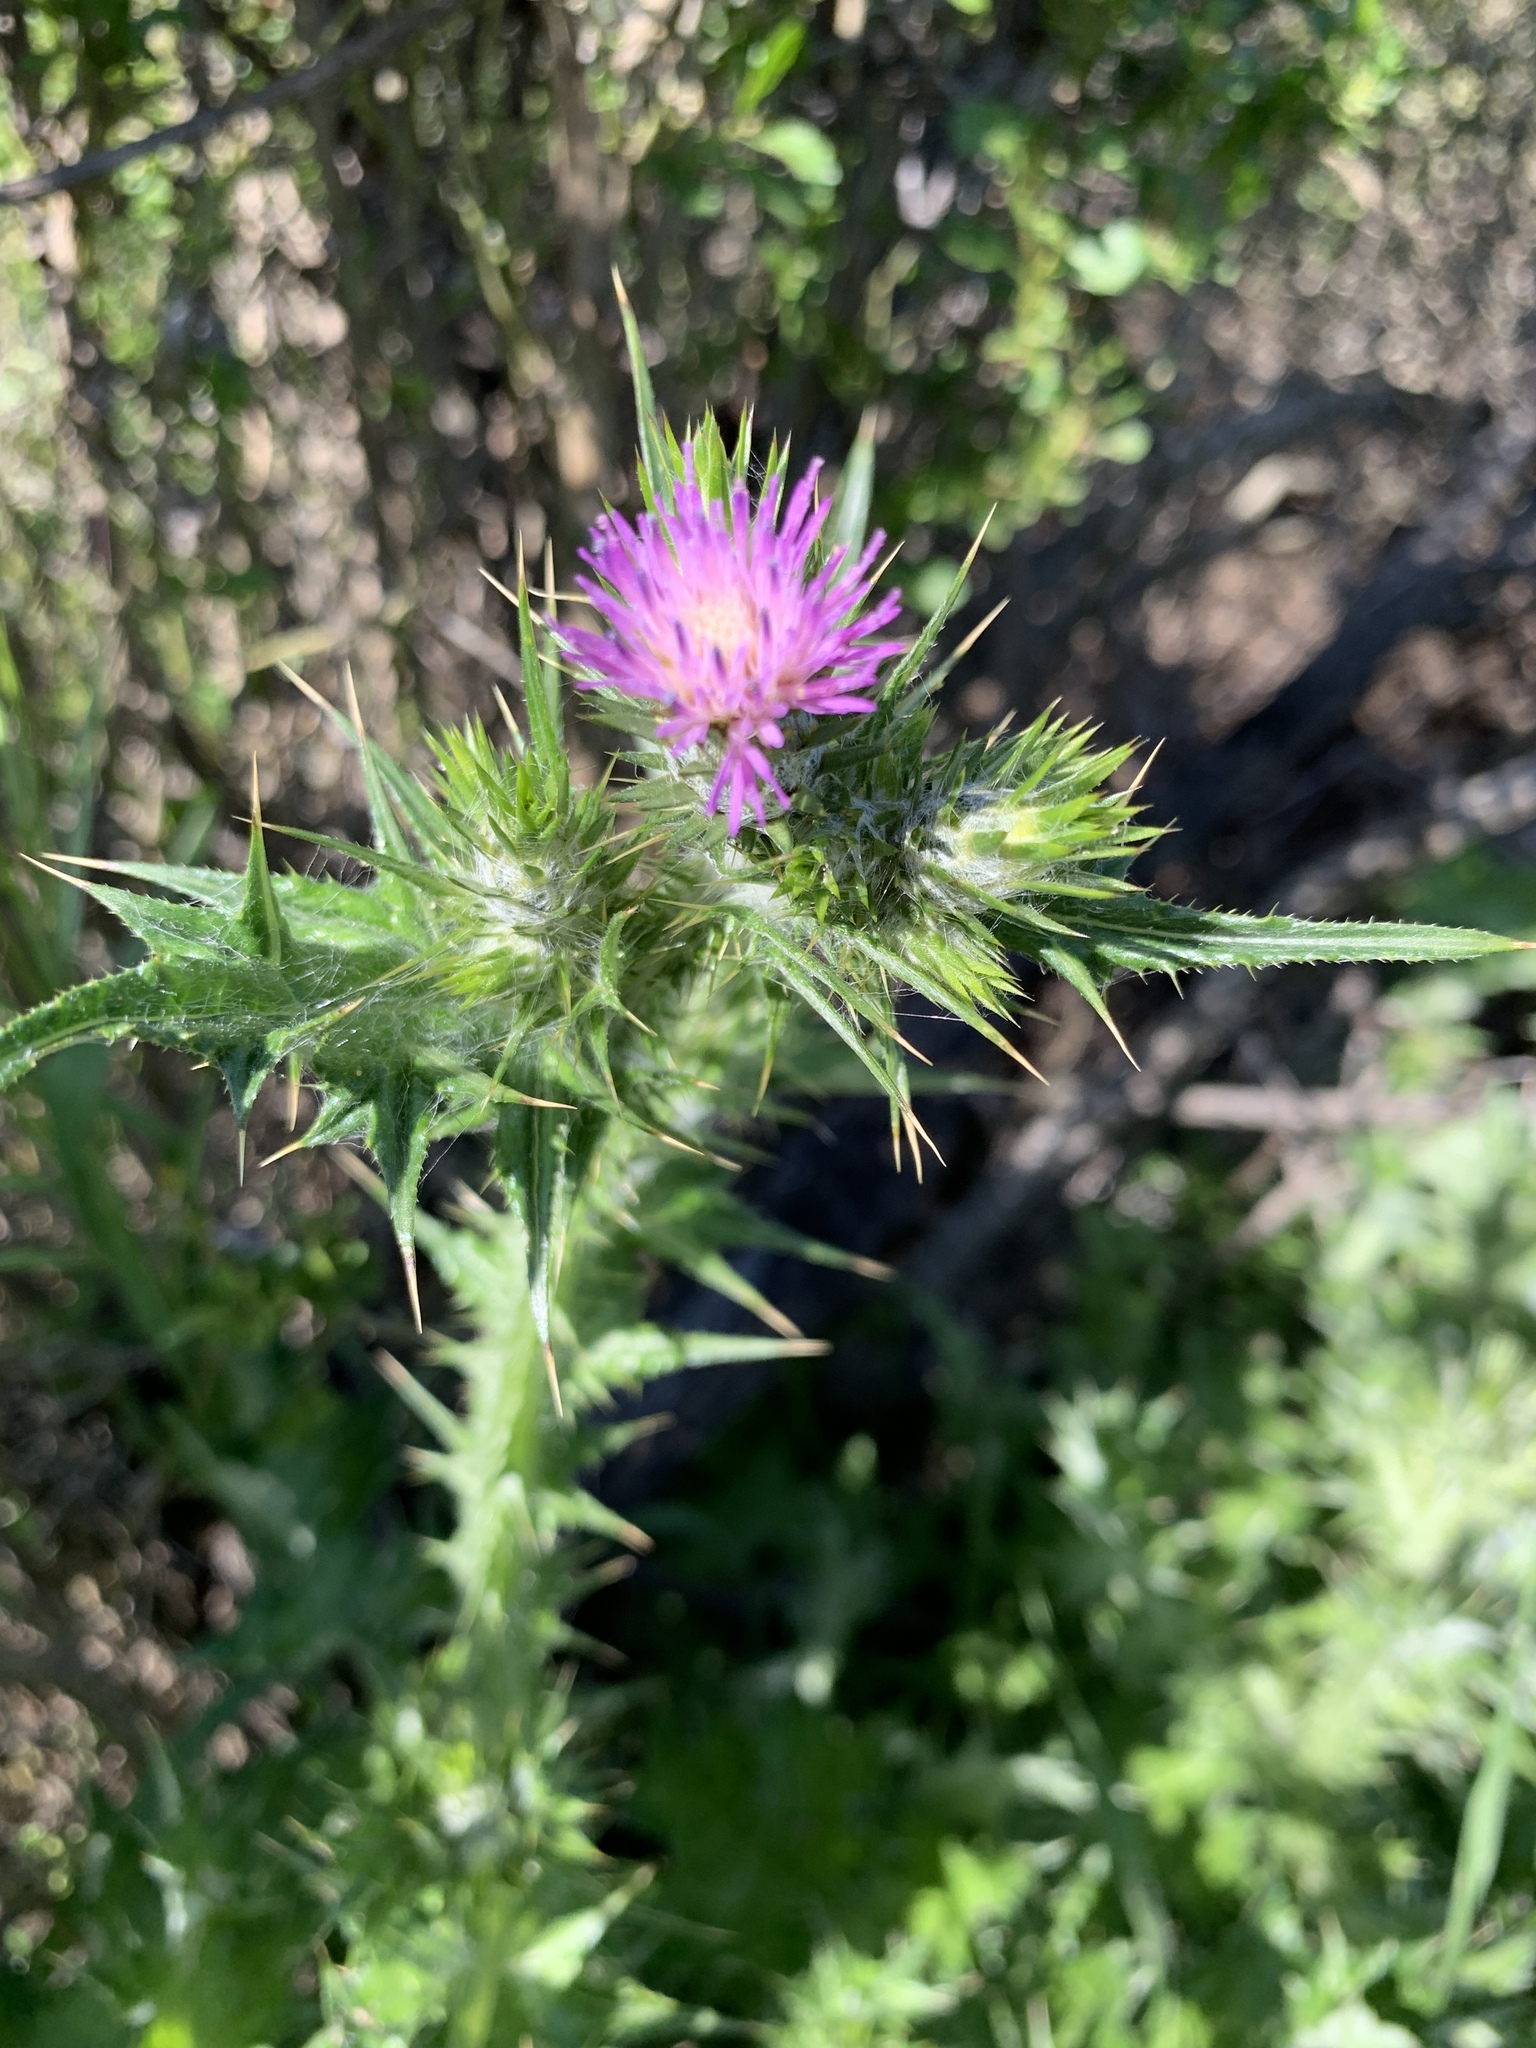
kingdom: Plantae
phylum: Tracheophyta
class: Magnoliopsida
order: Asterales
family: Asteraceae
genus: Carduus
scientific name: Carduus pycnocephalus
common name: Plymouth thistle
